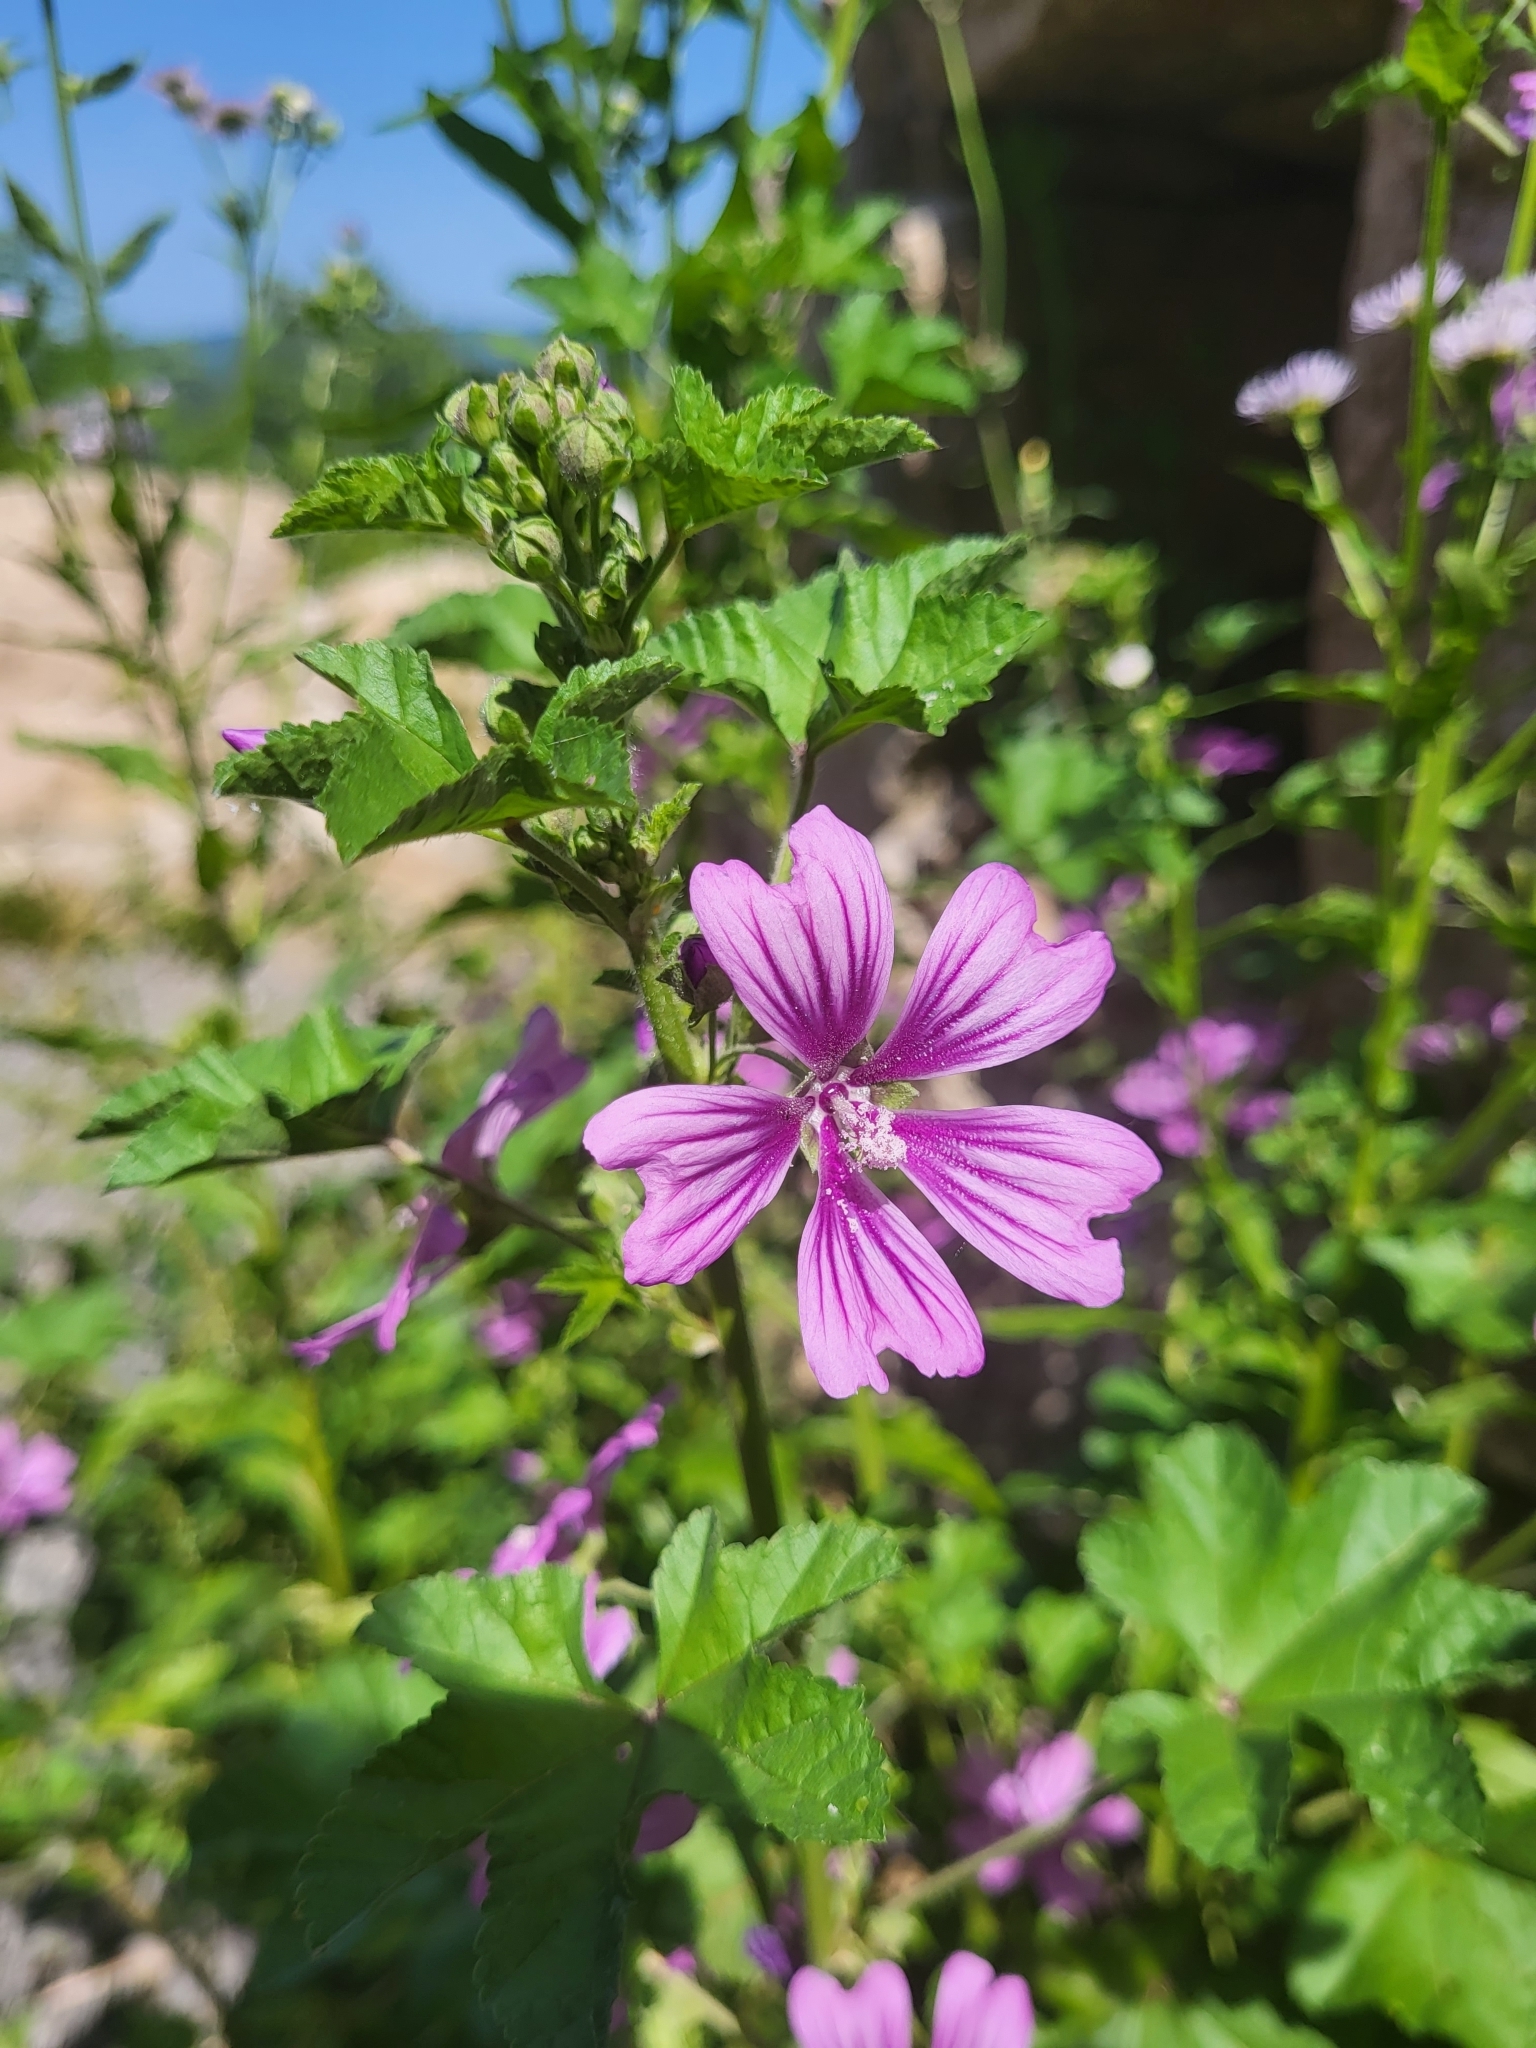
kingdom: Plantae
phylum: Tracheophyta
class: Magnoliopsida
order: Malvales
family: Malvaceae
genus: Malva
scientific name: Malva sylvestris
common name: Common mallow
